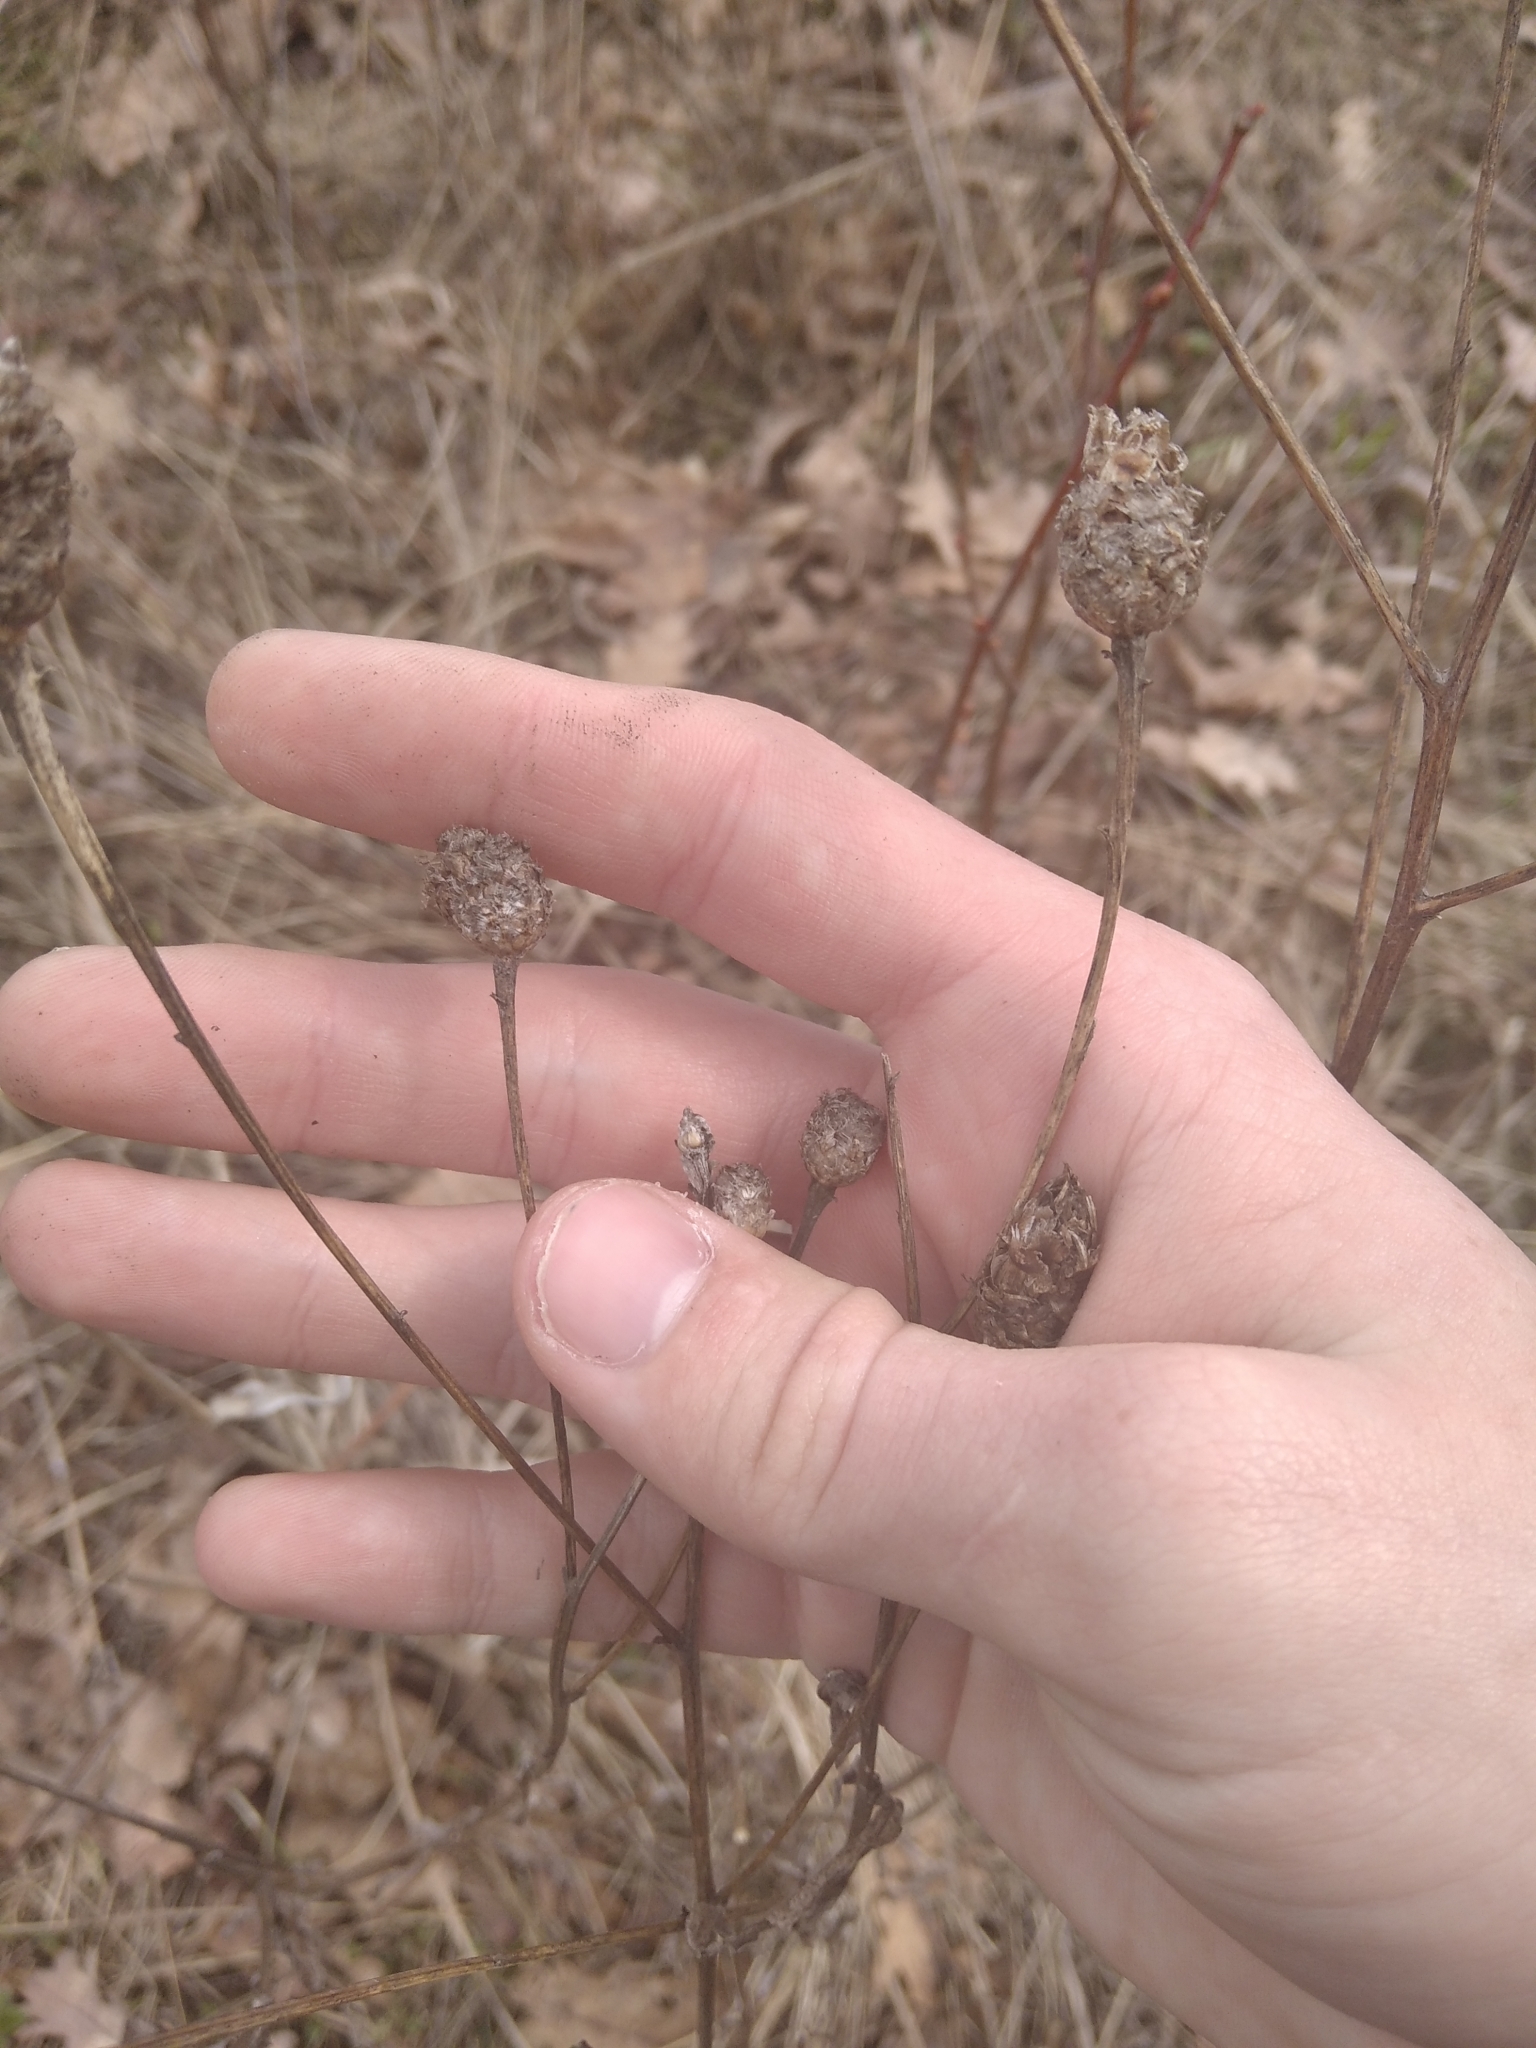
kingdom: Plantae
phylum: Tracheophyta
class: Magnoliopsida
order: Asterales
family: Asteraceae
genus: Centaurea
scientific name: Centaurea jacea
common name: Brown knapweed
